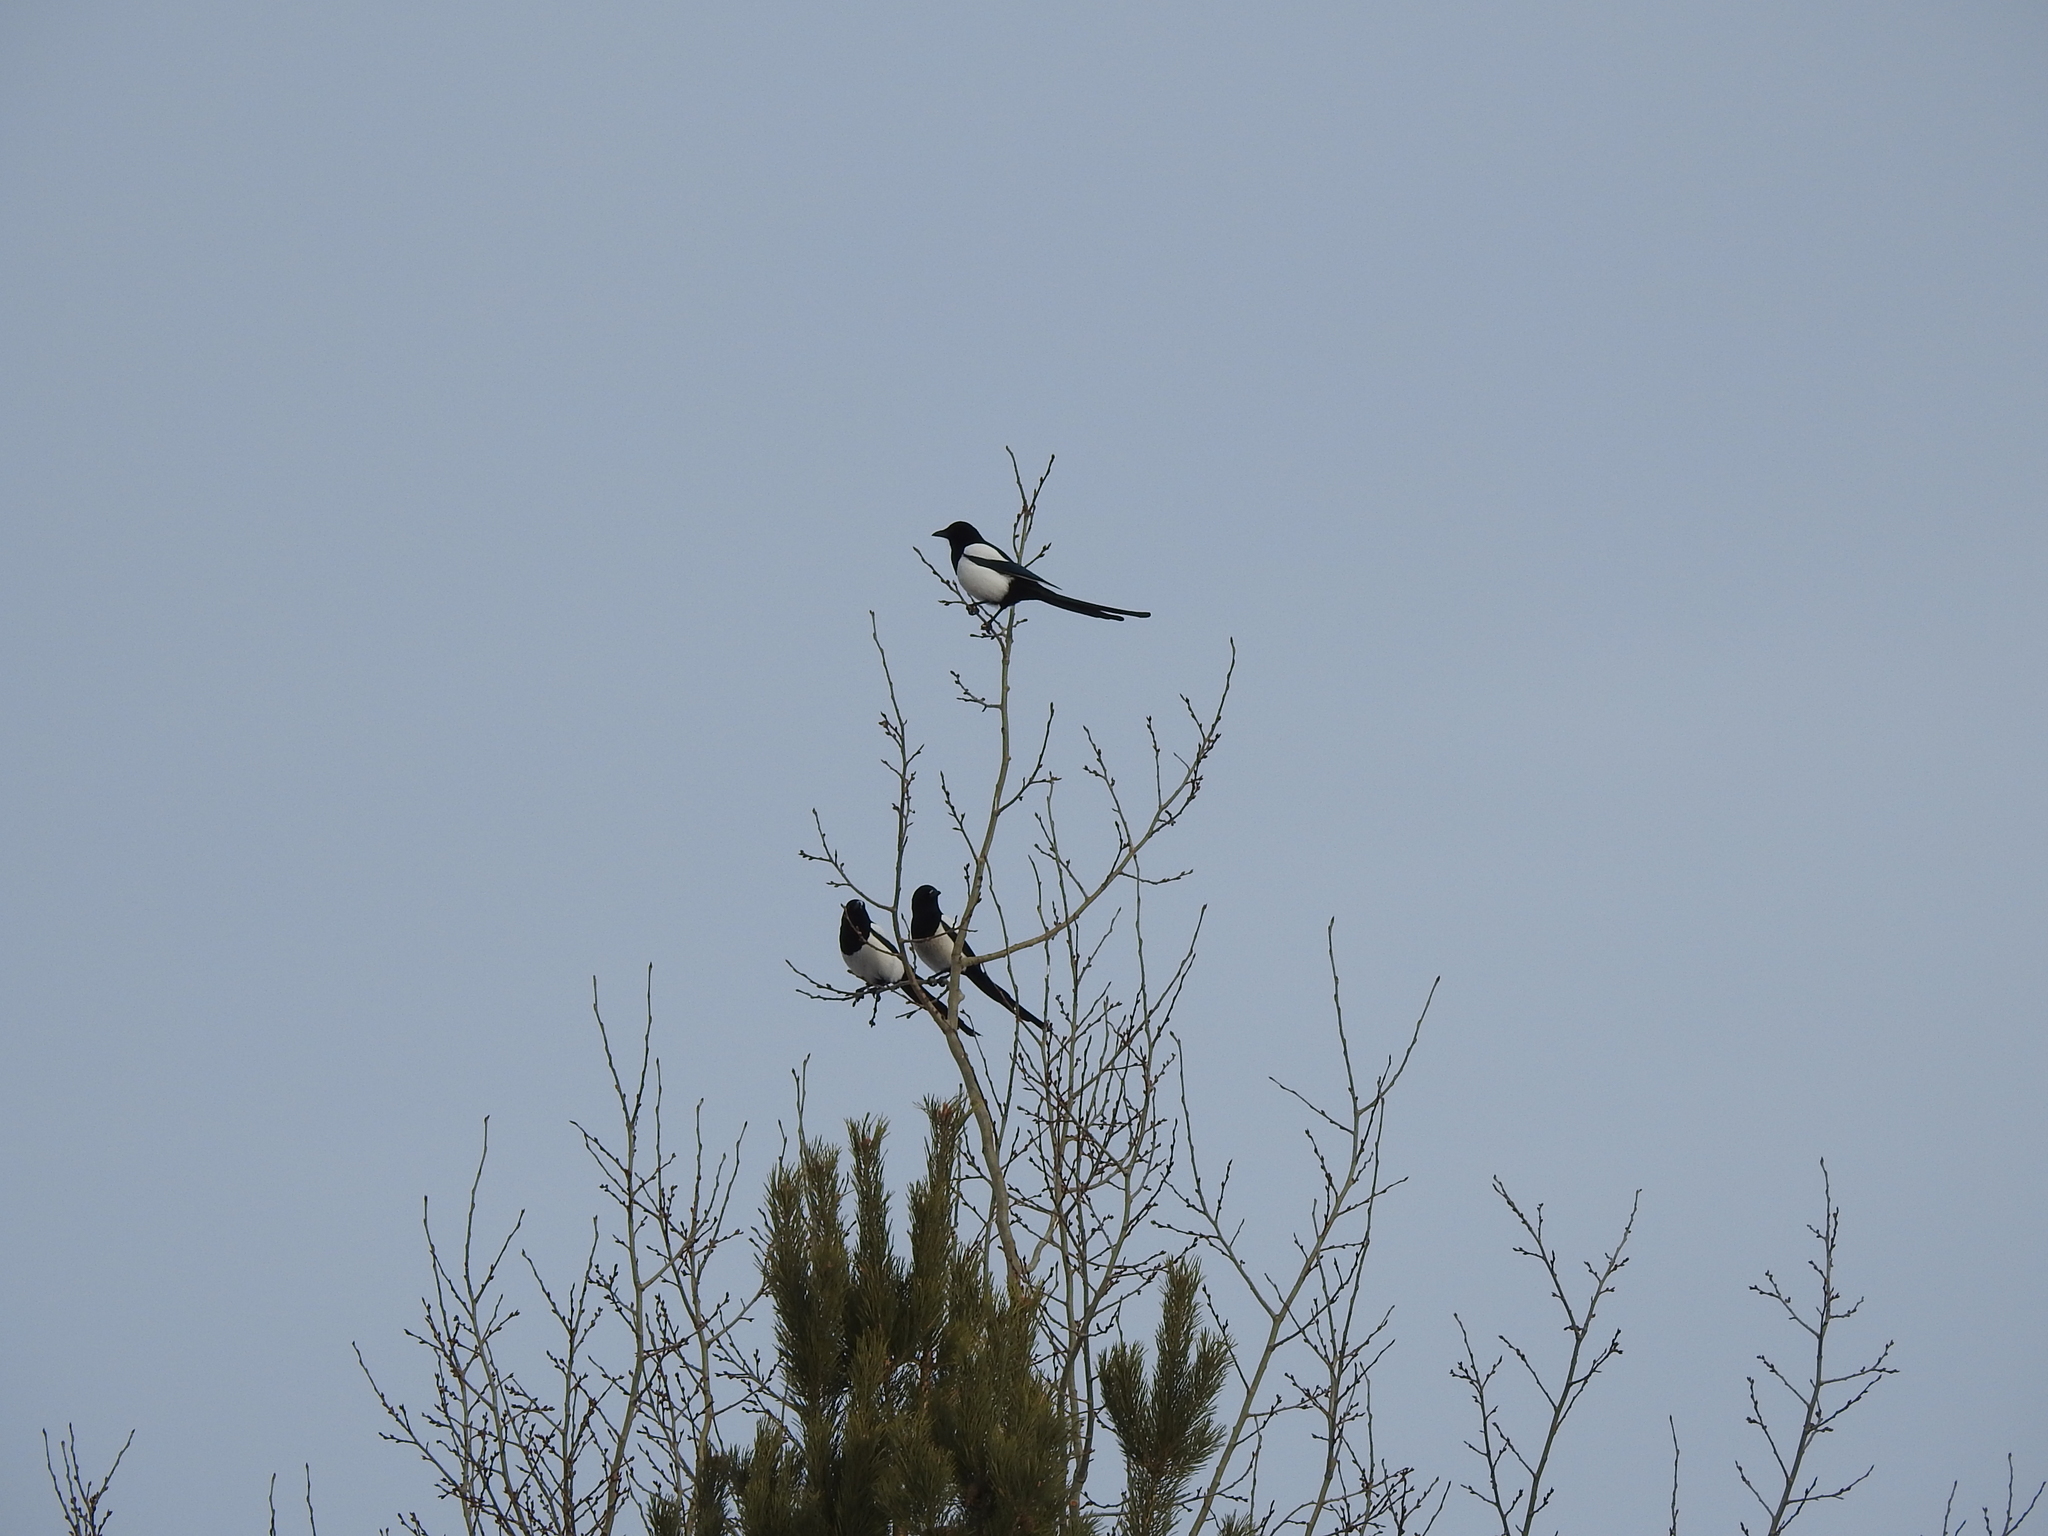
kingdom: Animalia
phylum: Chordata
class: Aves
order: Passeriformes
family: Corvidae
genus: Pica
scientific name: Pica pica
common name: Eurasian magpie
